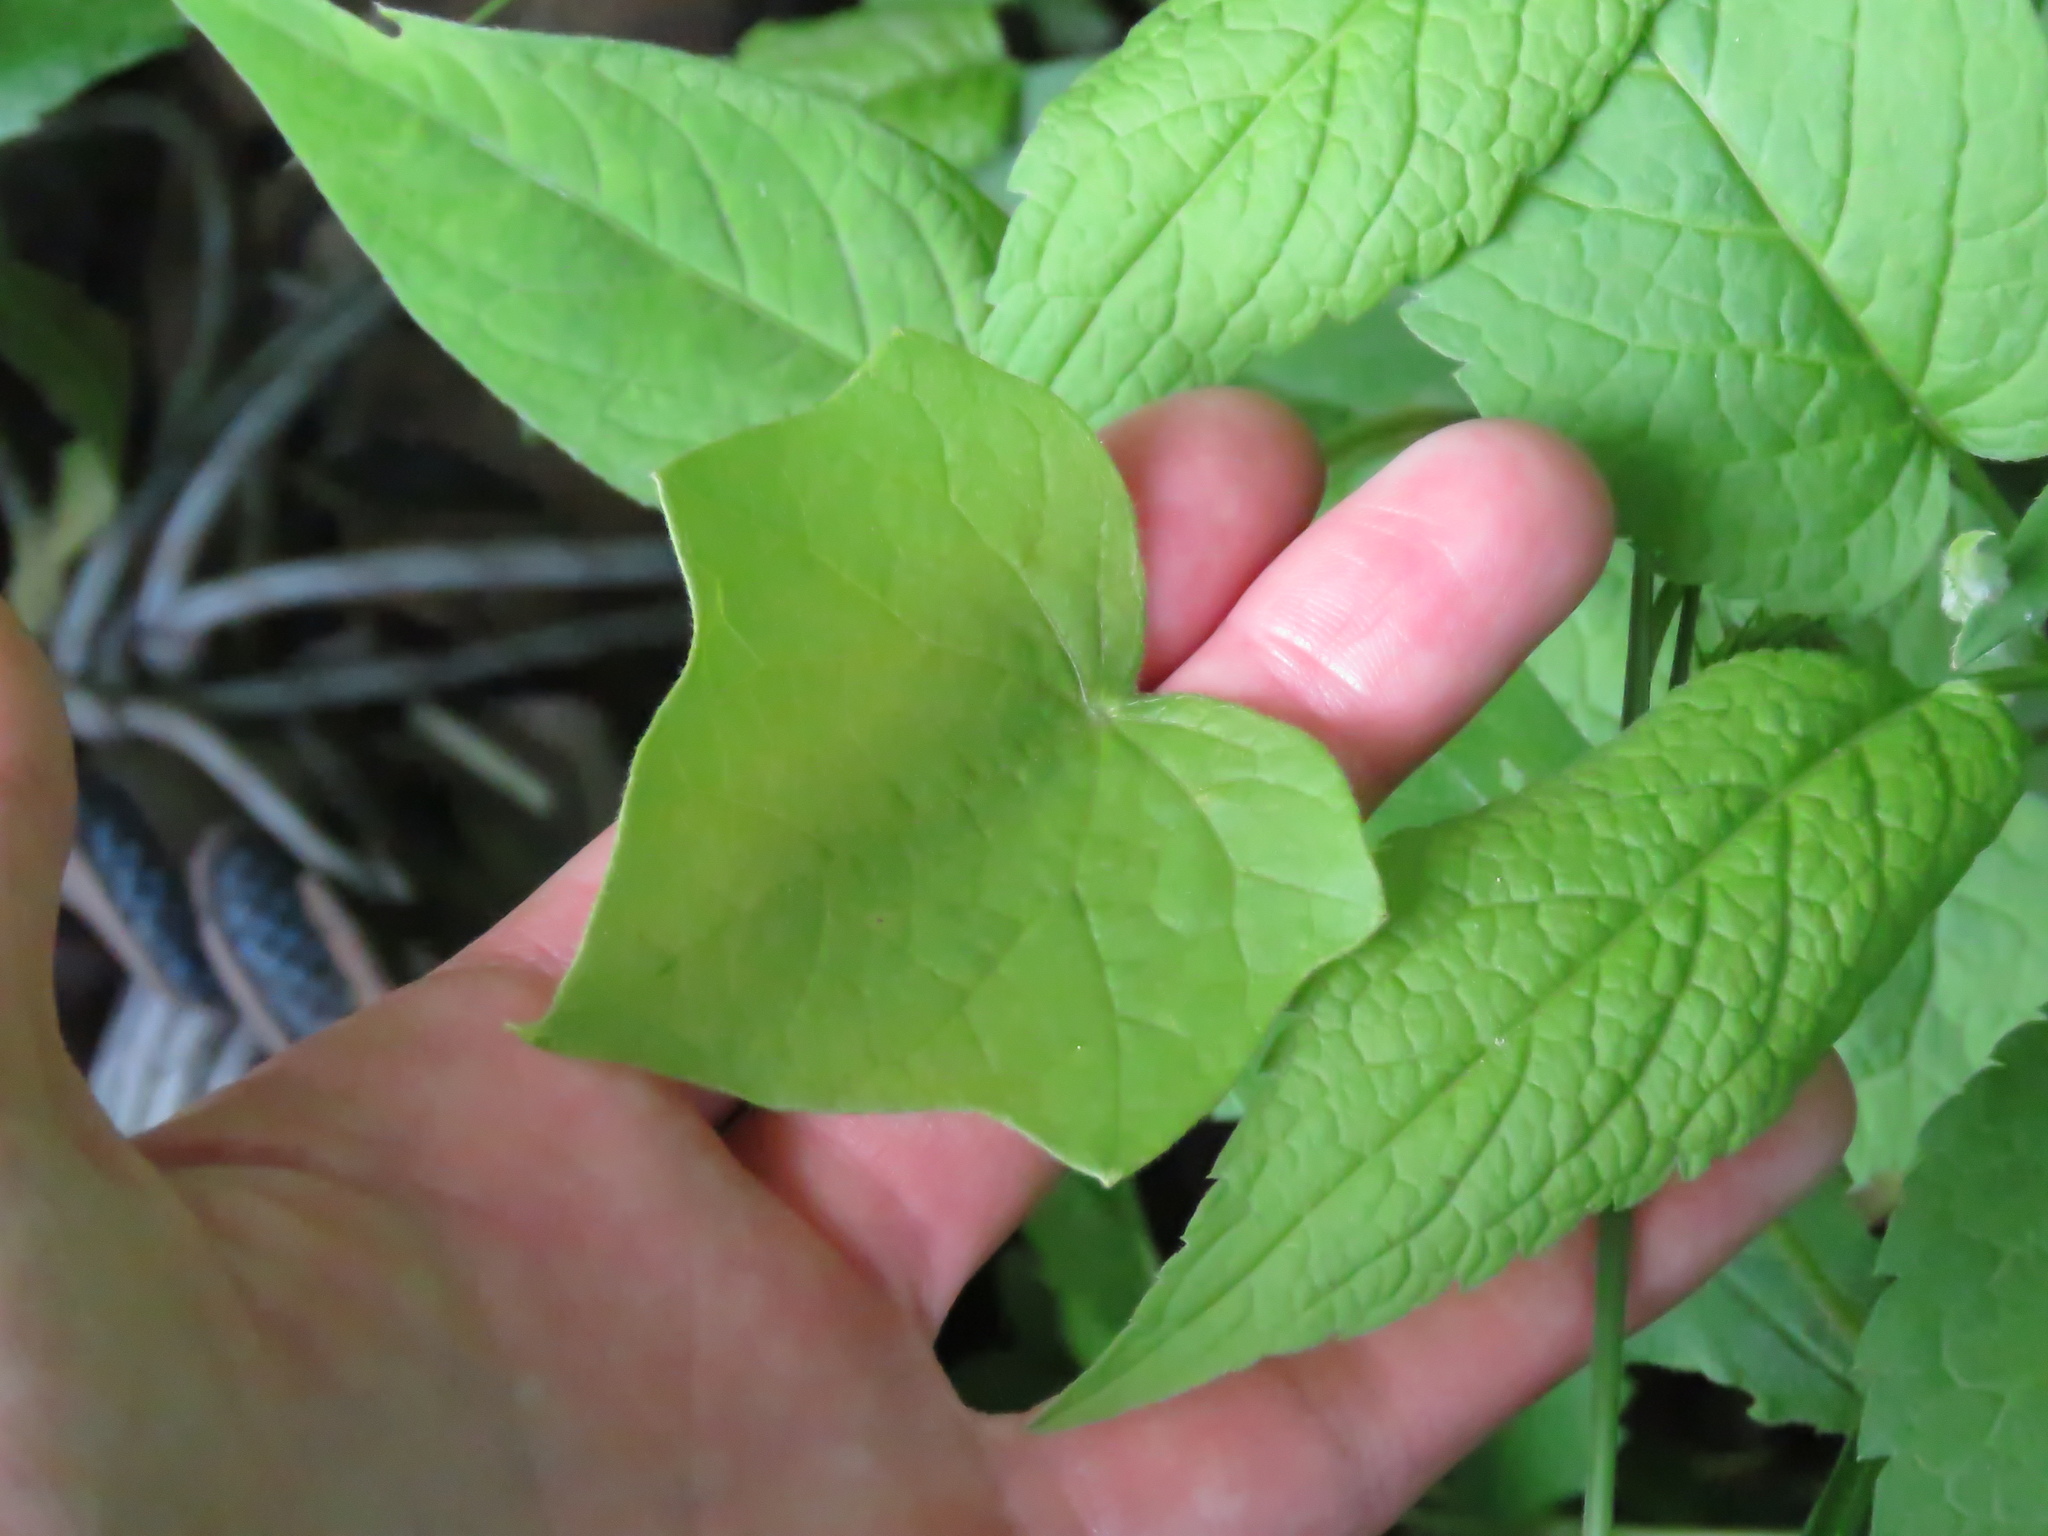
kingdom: Plantae
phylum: Tracheophyta
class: Magnoliopsida
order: Ranunculales
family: Menispermaceae
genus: Menispermum
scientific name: Menispermum canadense
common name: Moonseed
